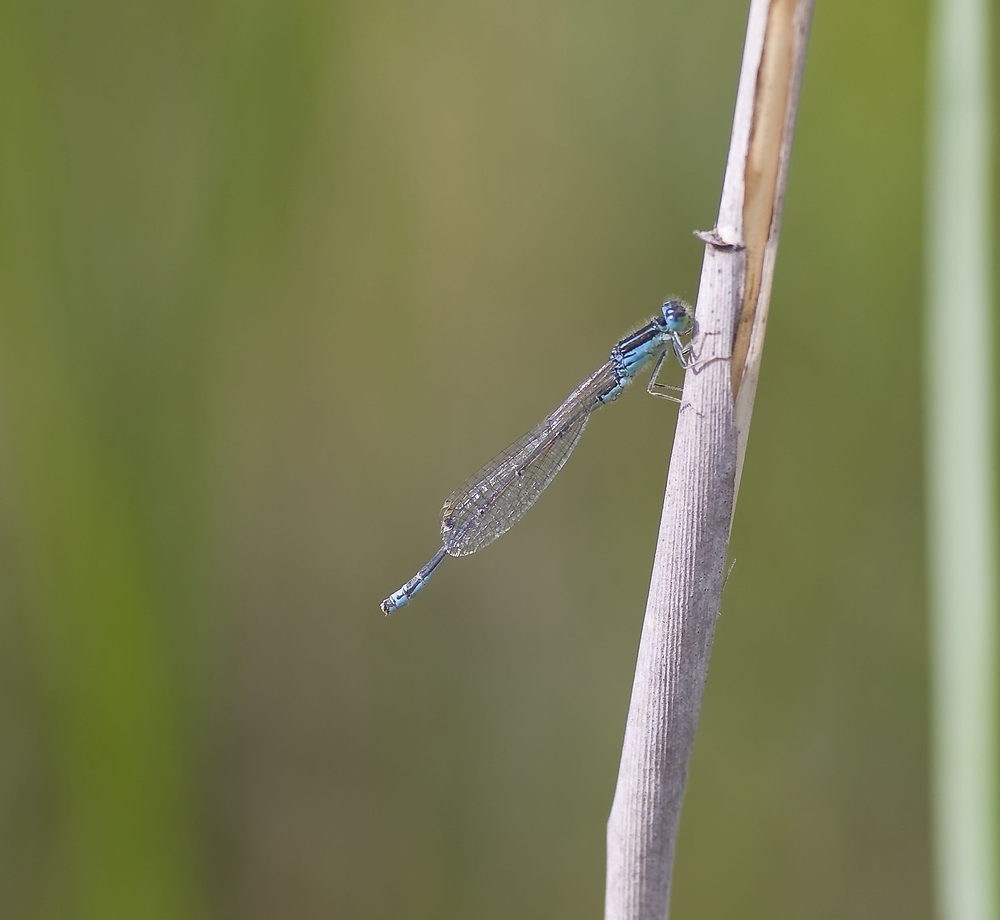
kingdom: Animalia
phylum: Arthropoda
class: Insecta
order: Odonata
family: Coenagrionidae
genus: Ischnura
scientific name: Ischnura pumilio
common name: Scarce blue-tailed damselfly
